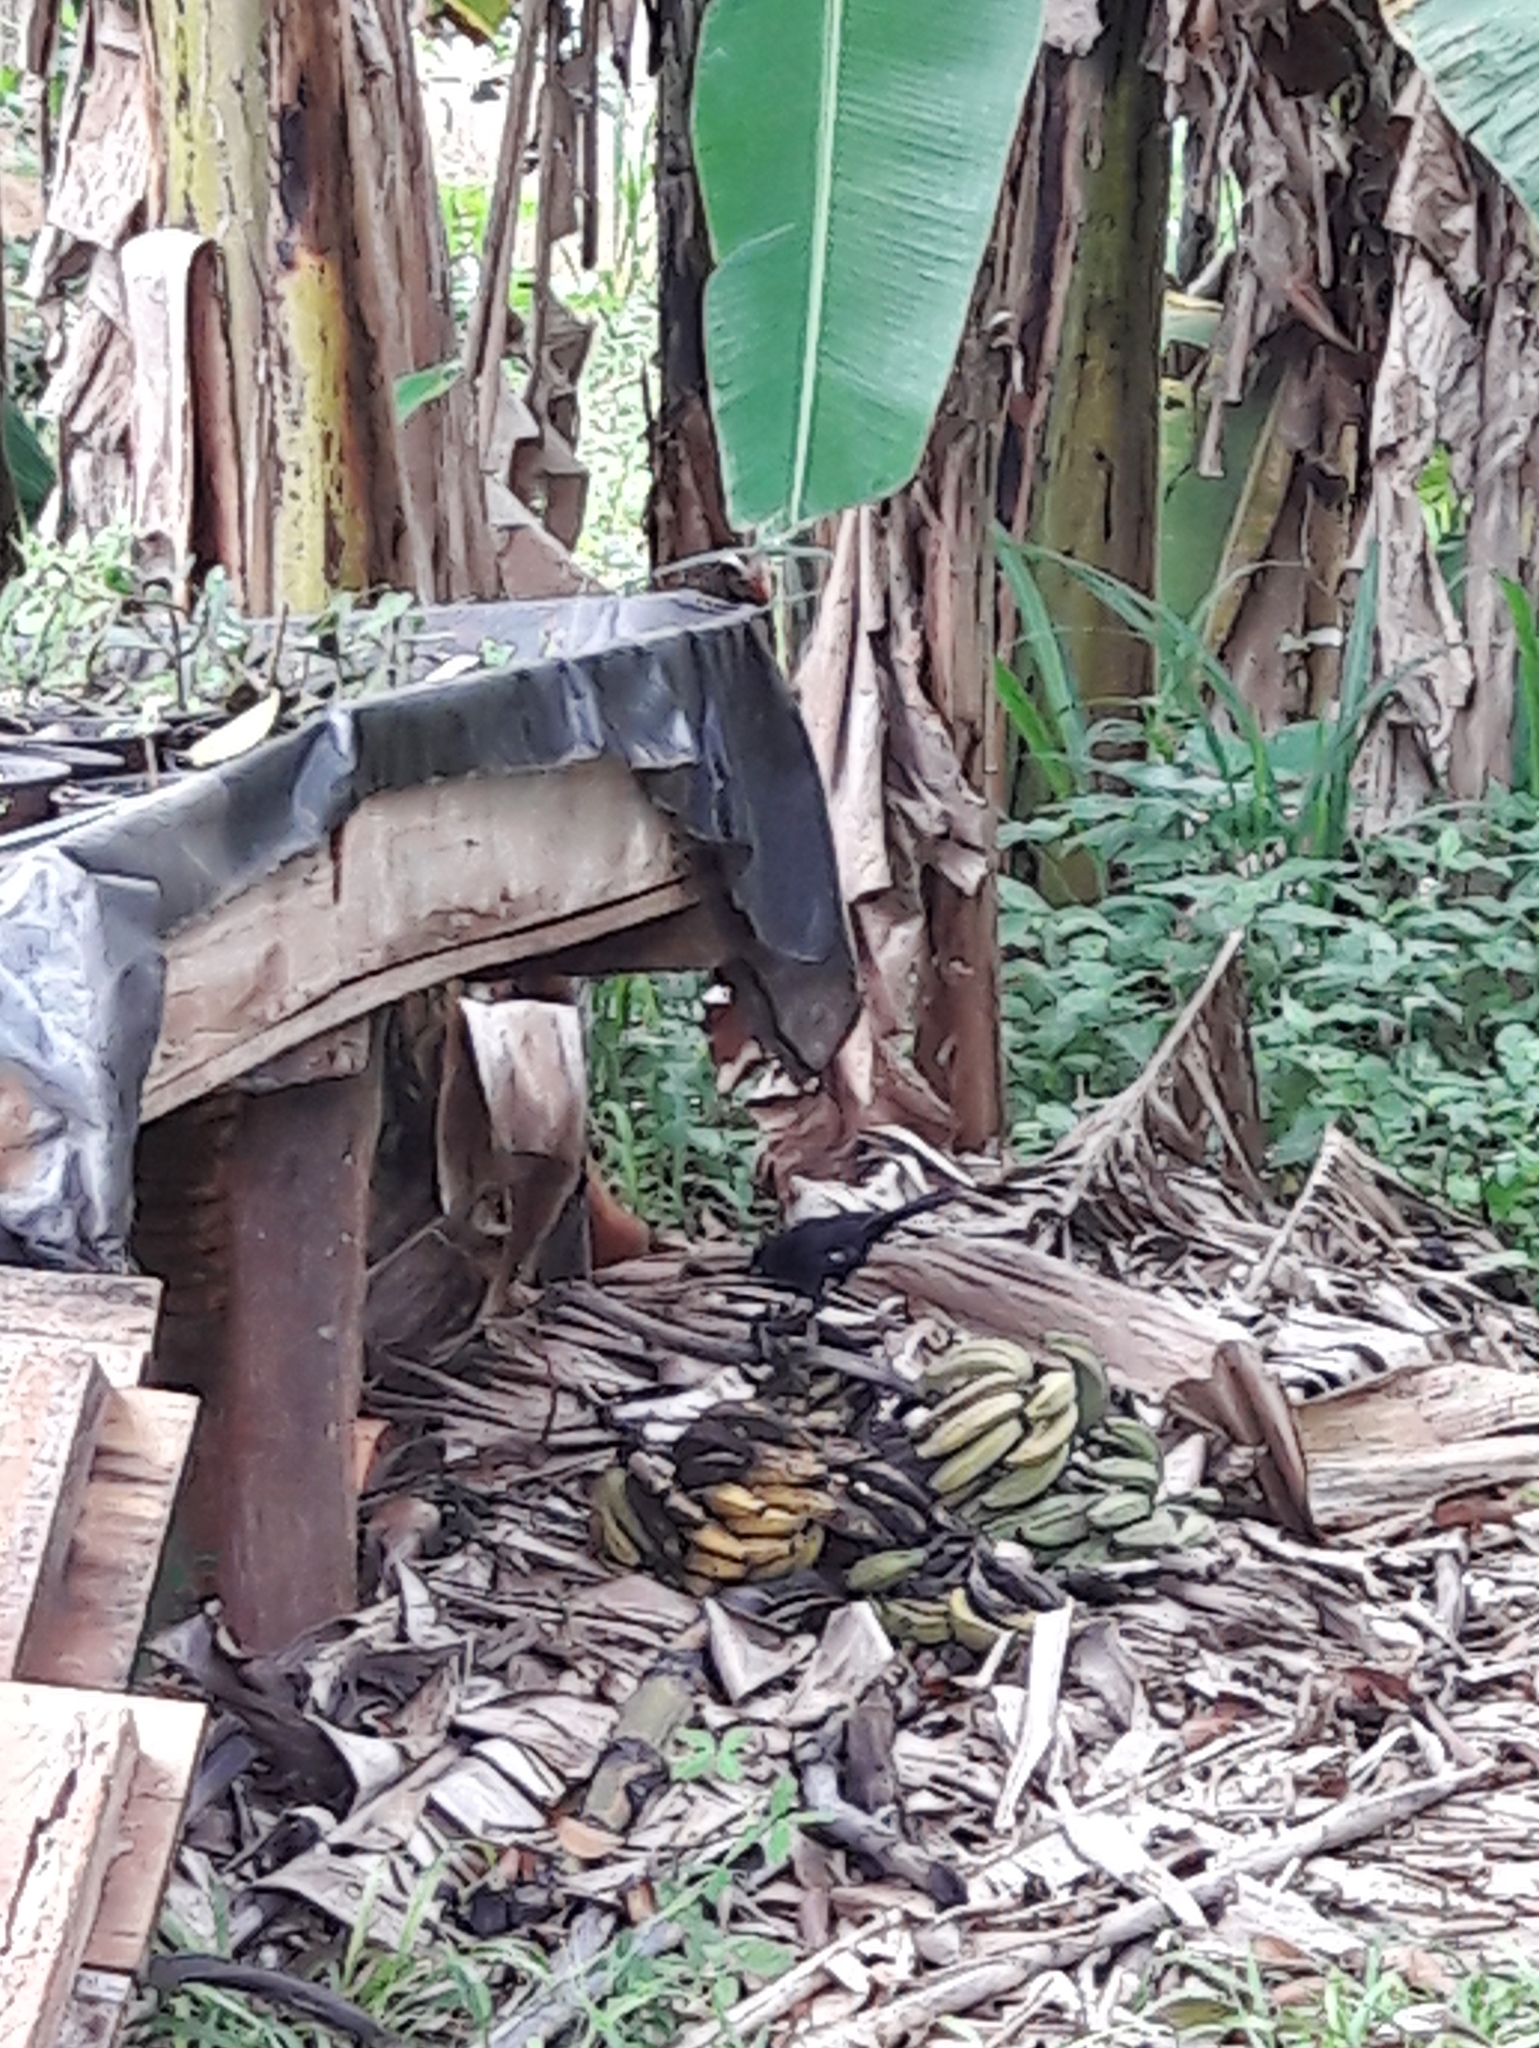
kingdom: Animalia
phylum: Chordata
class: Aves
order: Passeriformes
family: Thraupidae
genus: Tachyphonus
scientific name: Tachyphonus rufus
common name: White-lined tanager
